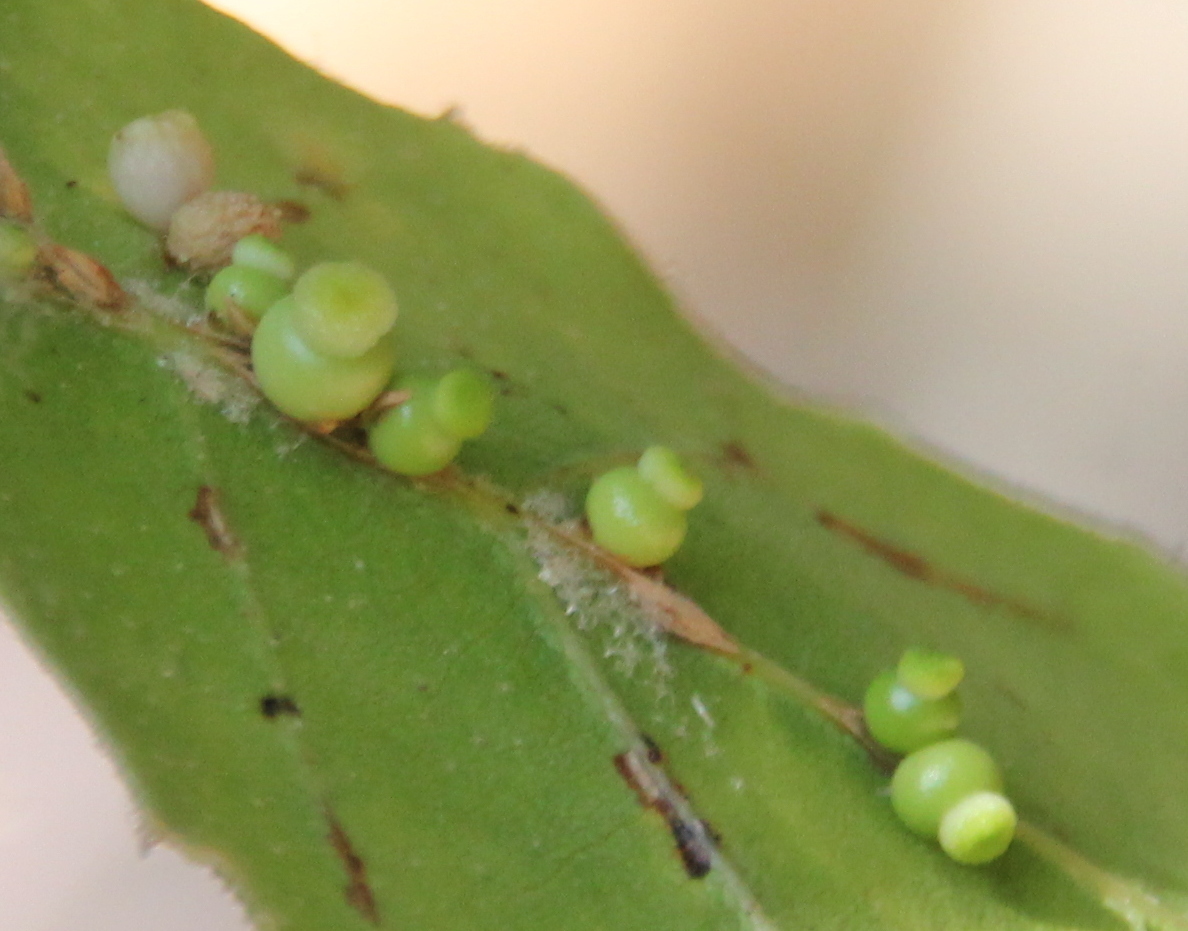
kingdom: Animalia
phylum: Arthropoda
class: Insecta
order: Hymenoptera
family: Cynipidae
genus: Callirhytis
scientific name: Callirhytis
